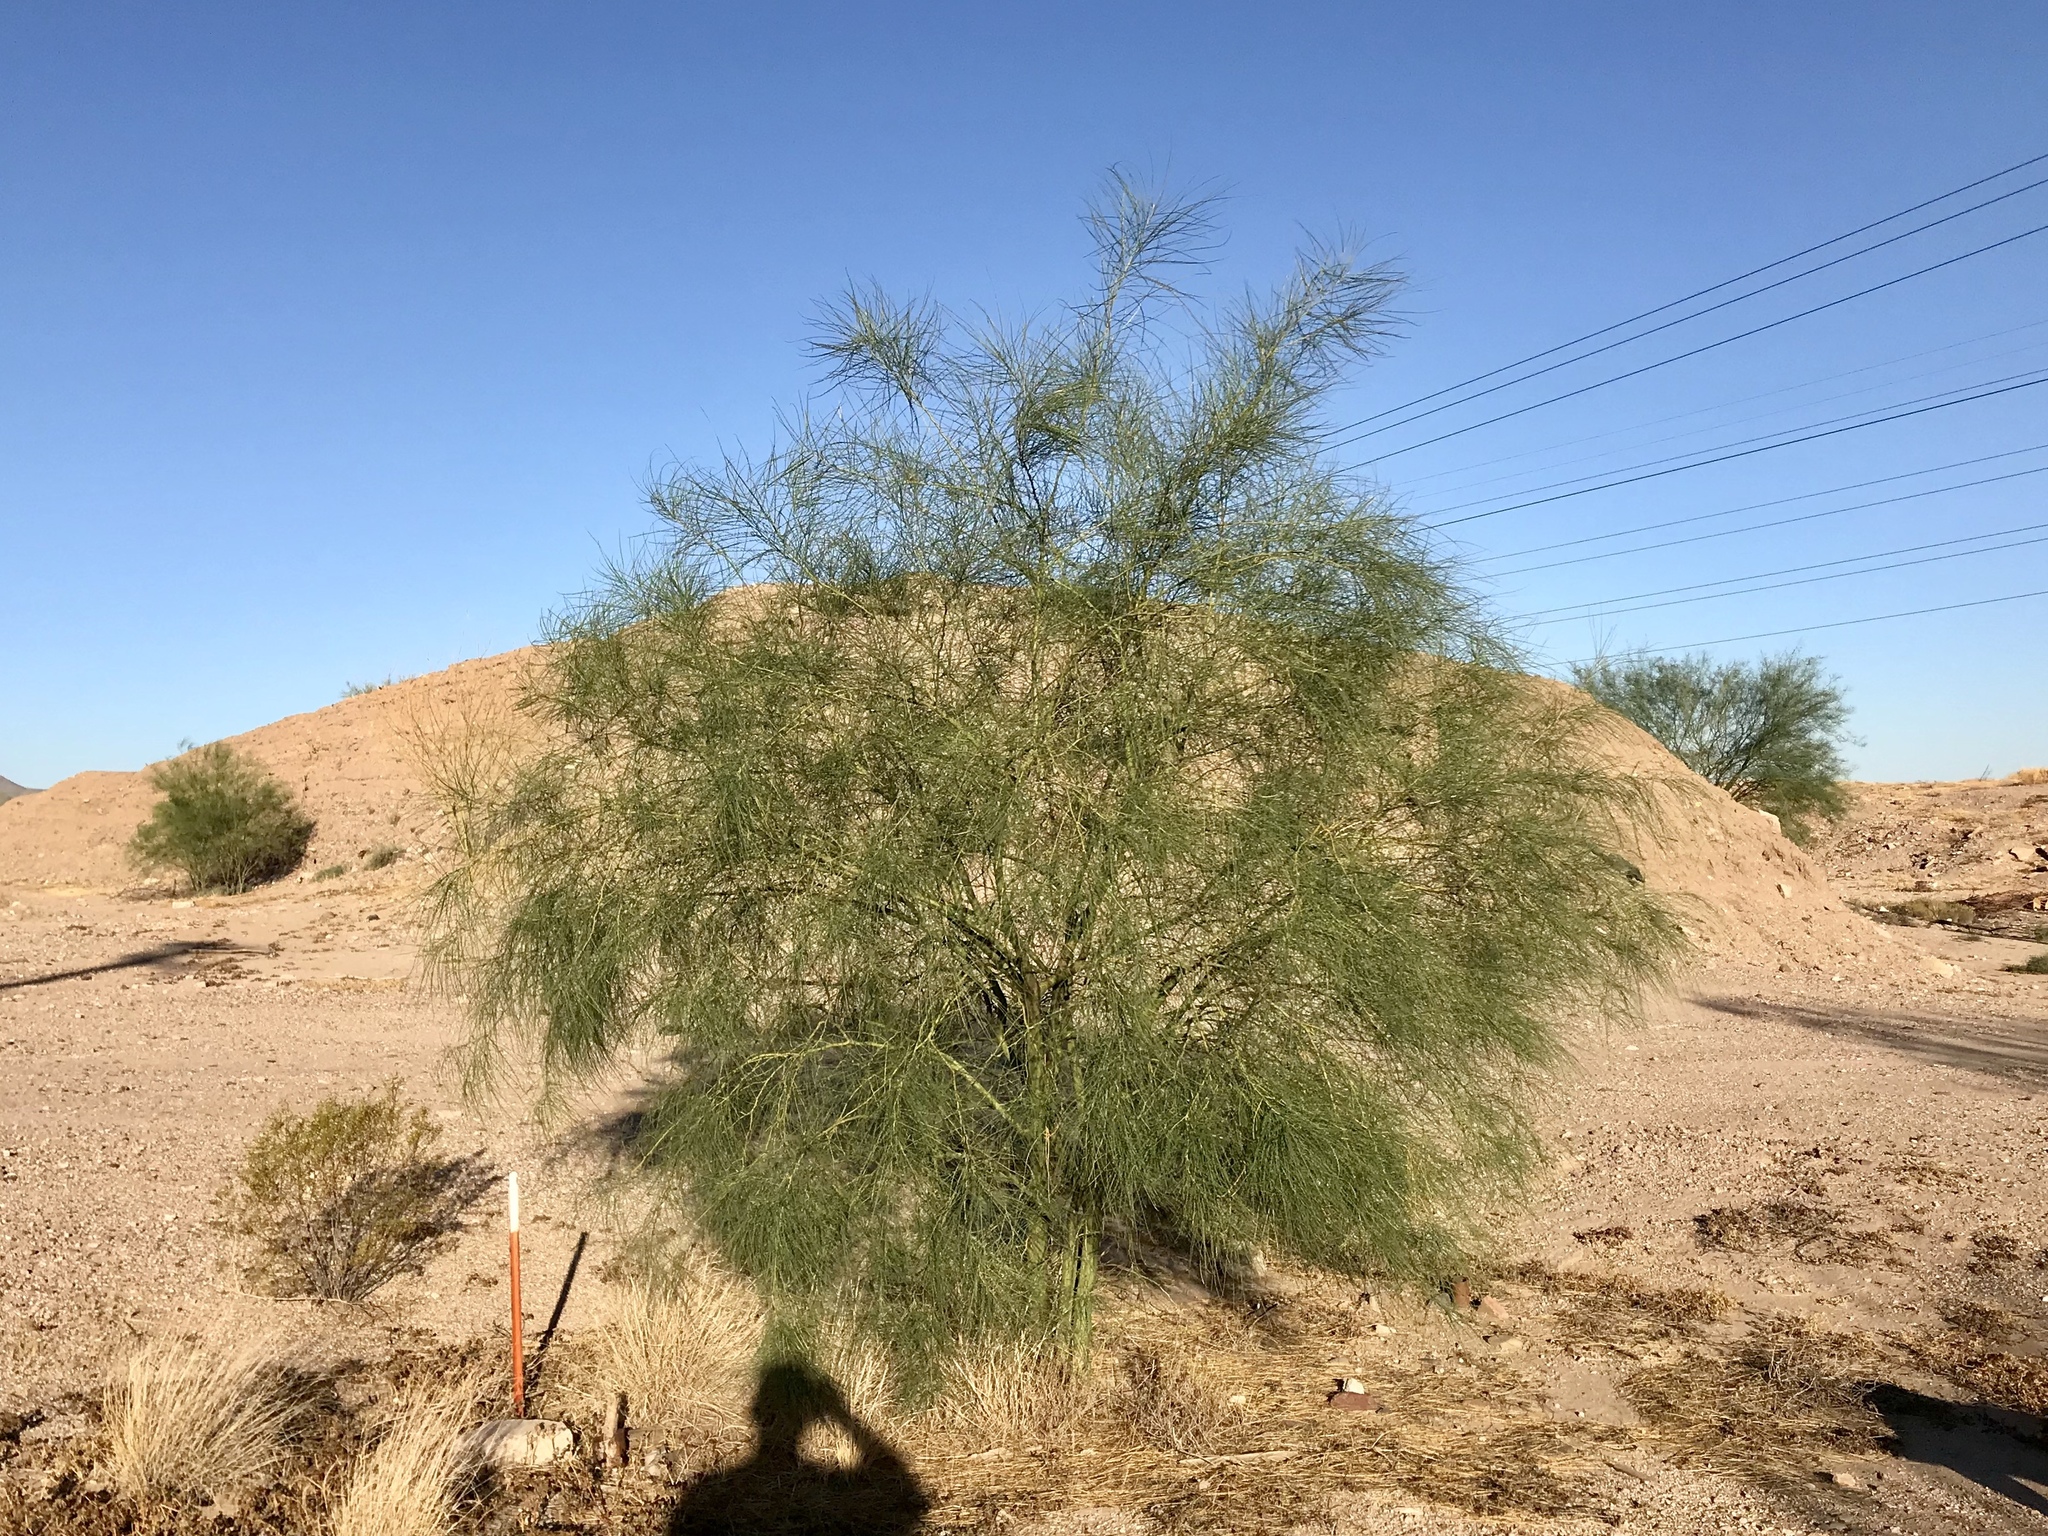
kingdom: Plantae
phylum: Tracheophyta
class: Magnoliopsida
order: Fabales
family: Fabaceae
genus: Parkinsonia
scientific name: Parkinsonia aculeata
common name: Jerusalem thorn
